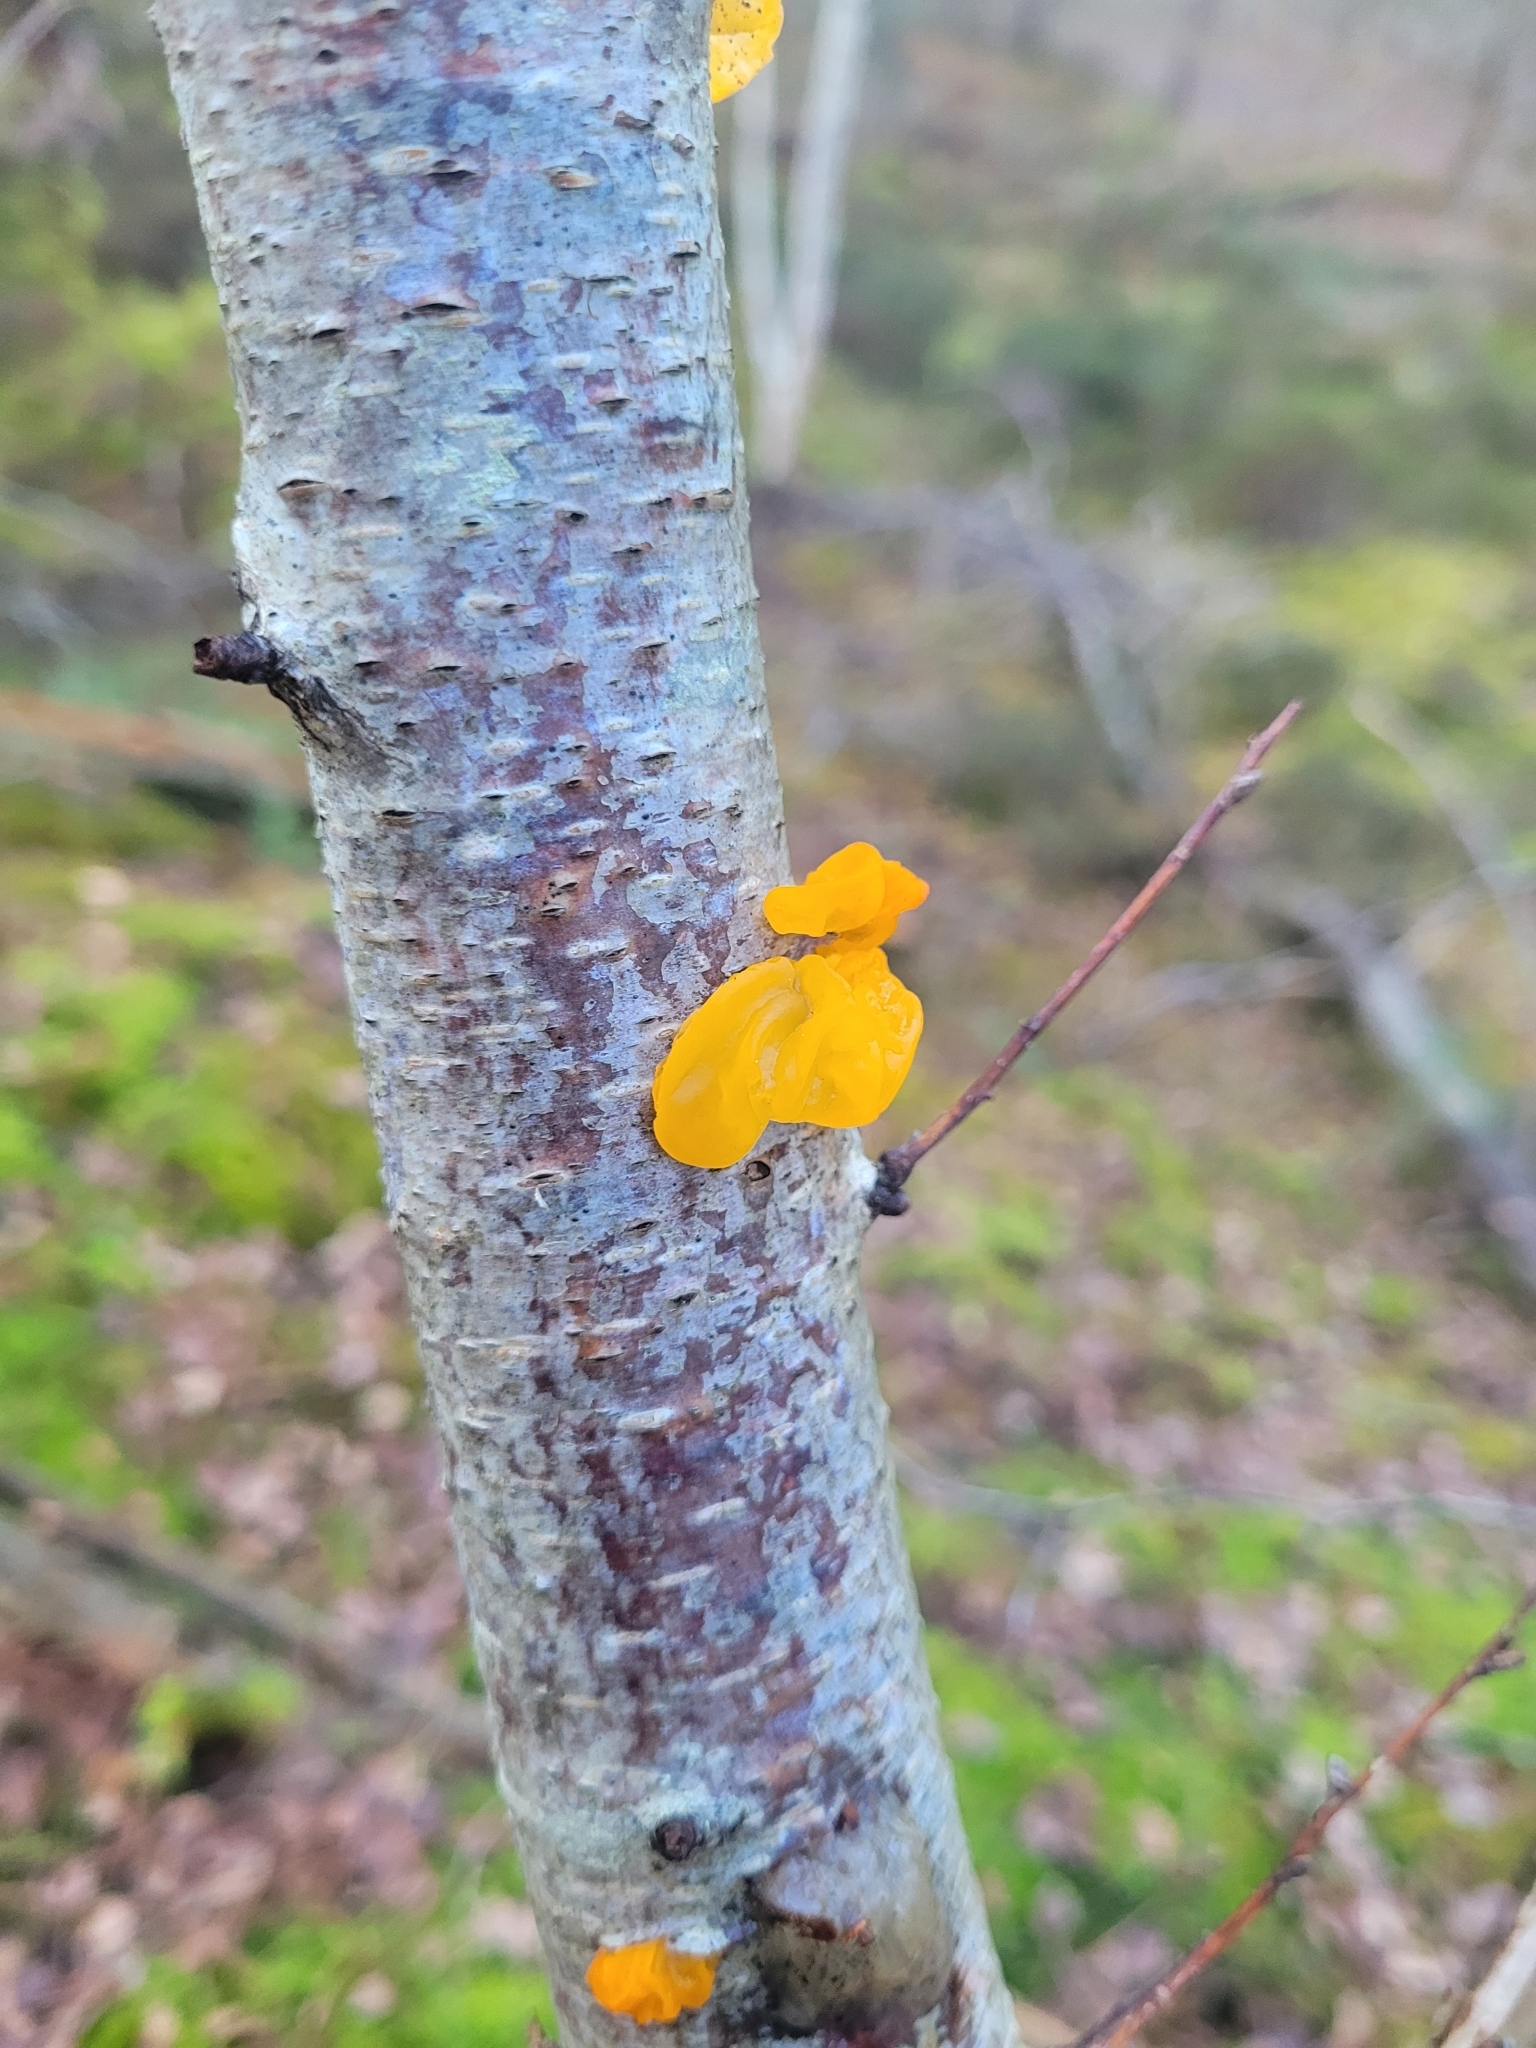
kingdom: Fungi
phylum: Basidiomycota
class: Tremellomycetes
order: Tremellales
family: Tremellaceae
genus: Tremella
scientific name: Tremella mesenterica
